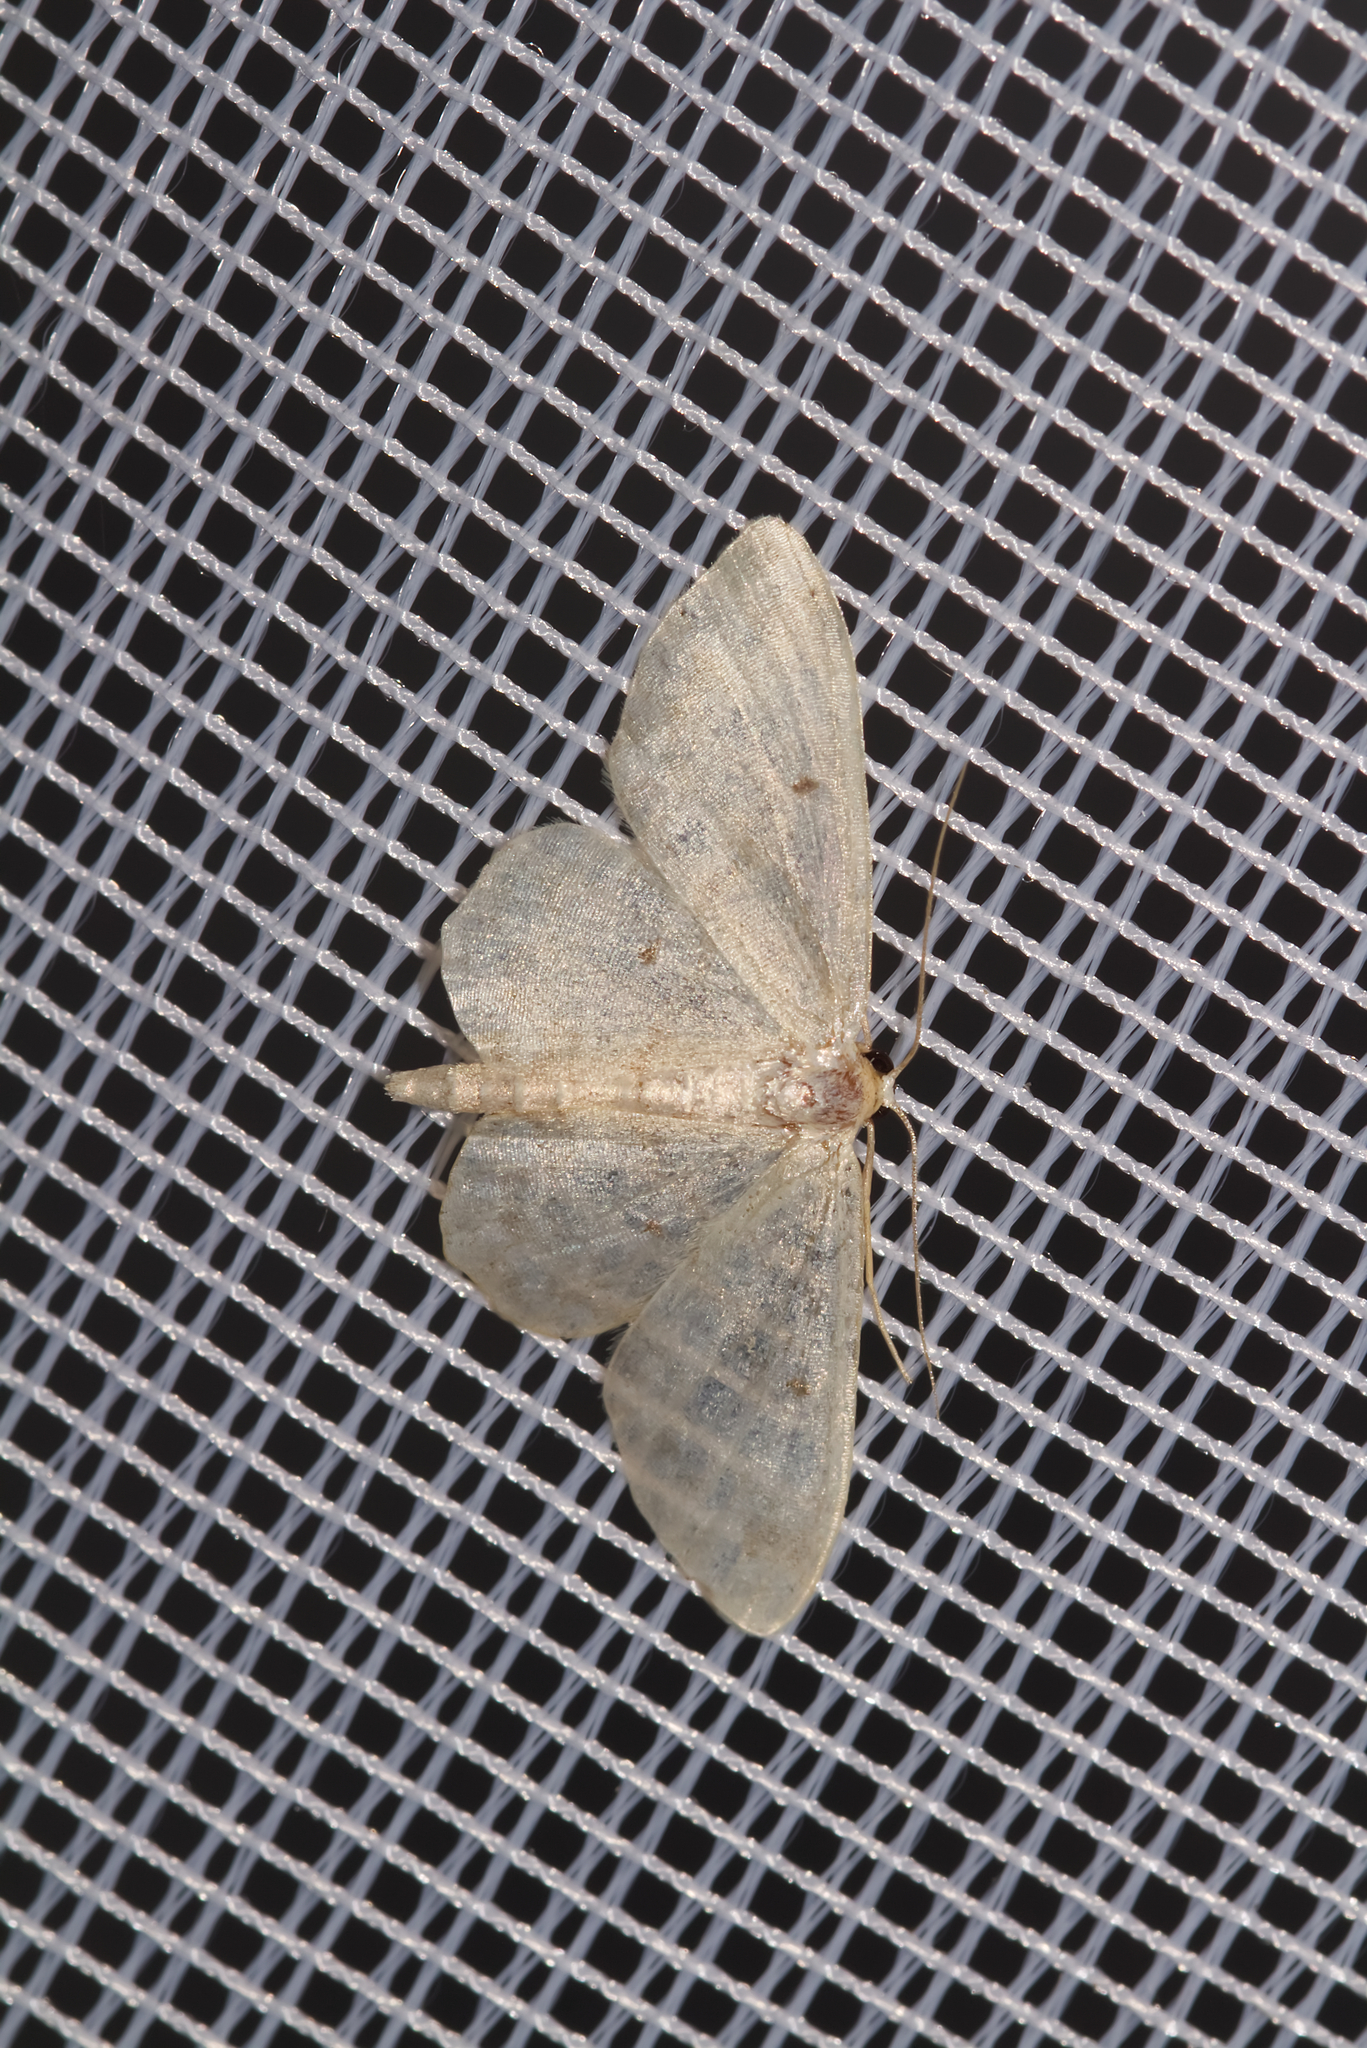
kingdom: Animalia
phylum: Arthropoda
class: Insecta
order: Lepidoptera
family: Geometridae
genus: Idaea
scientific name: Idaea biselata
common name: Small fan-footed wave
